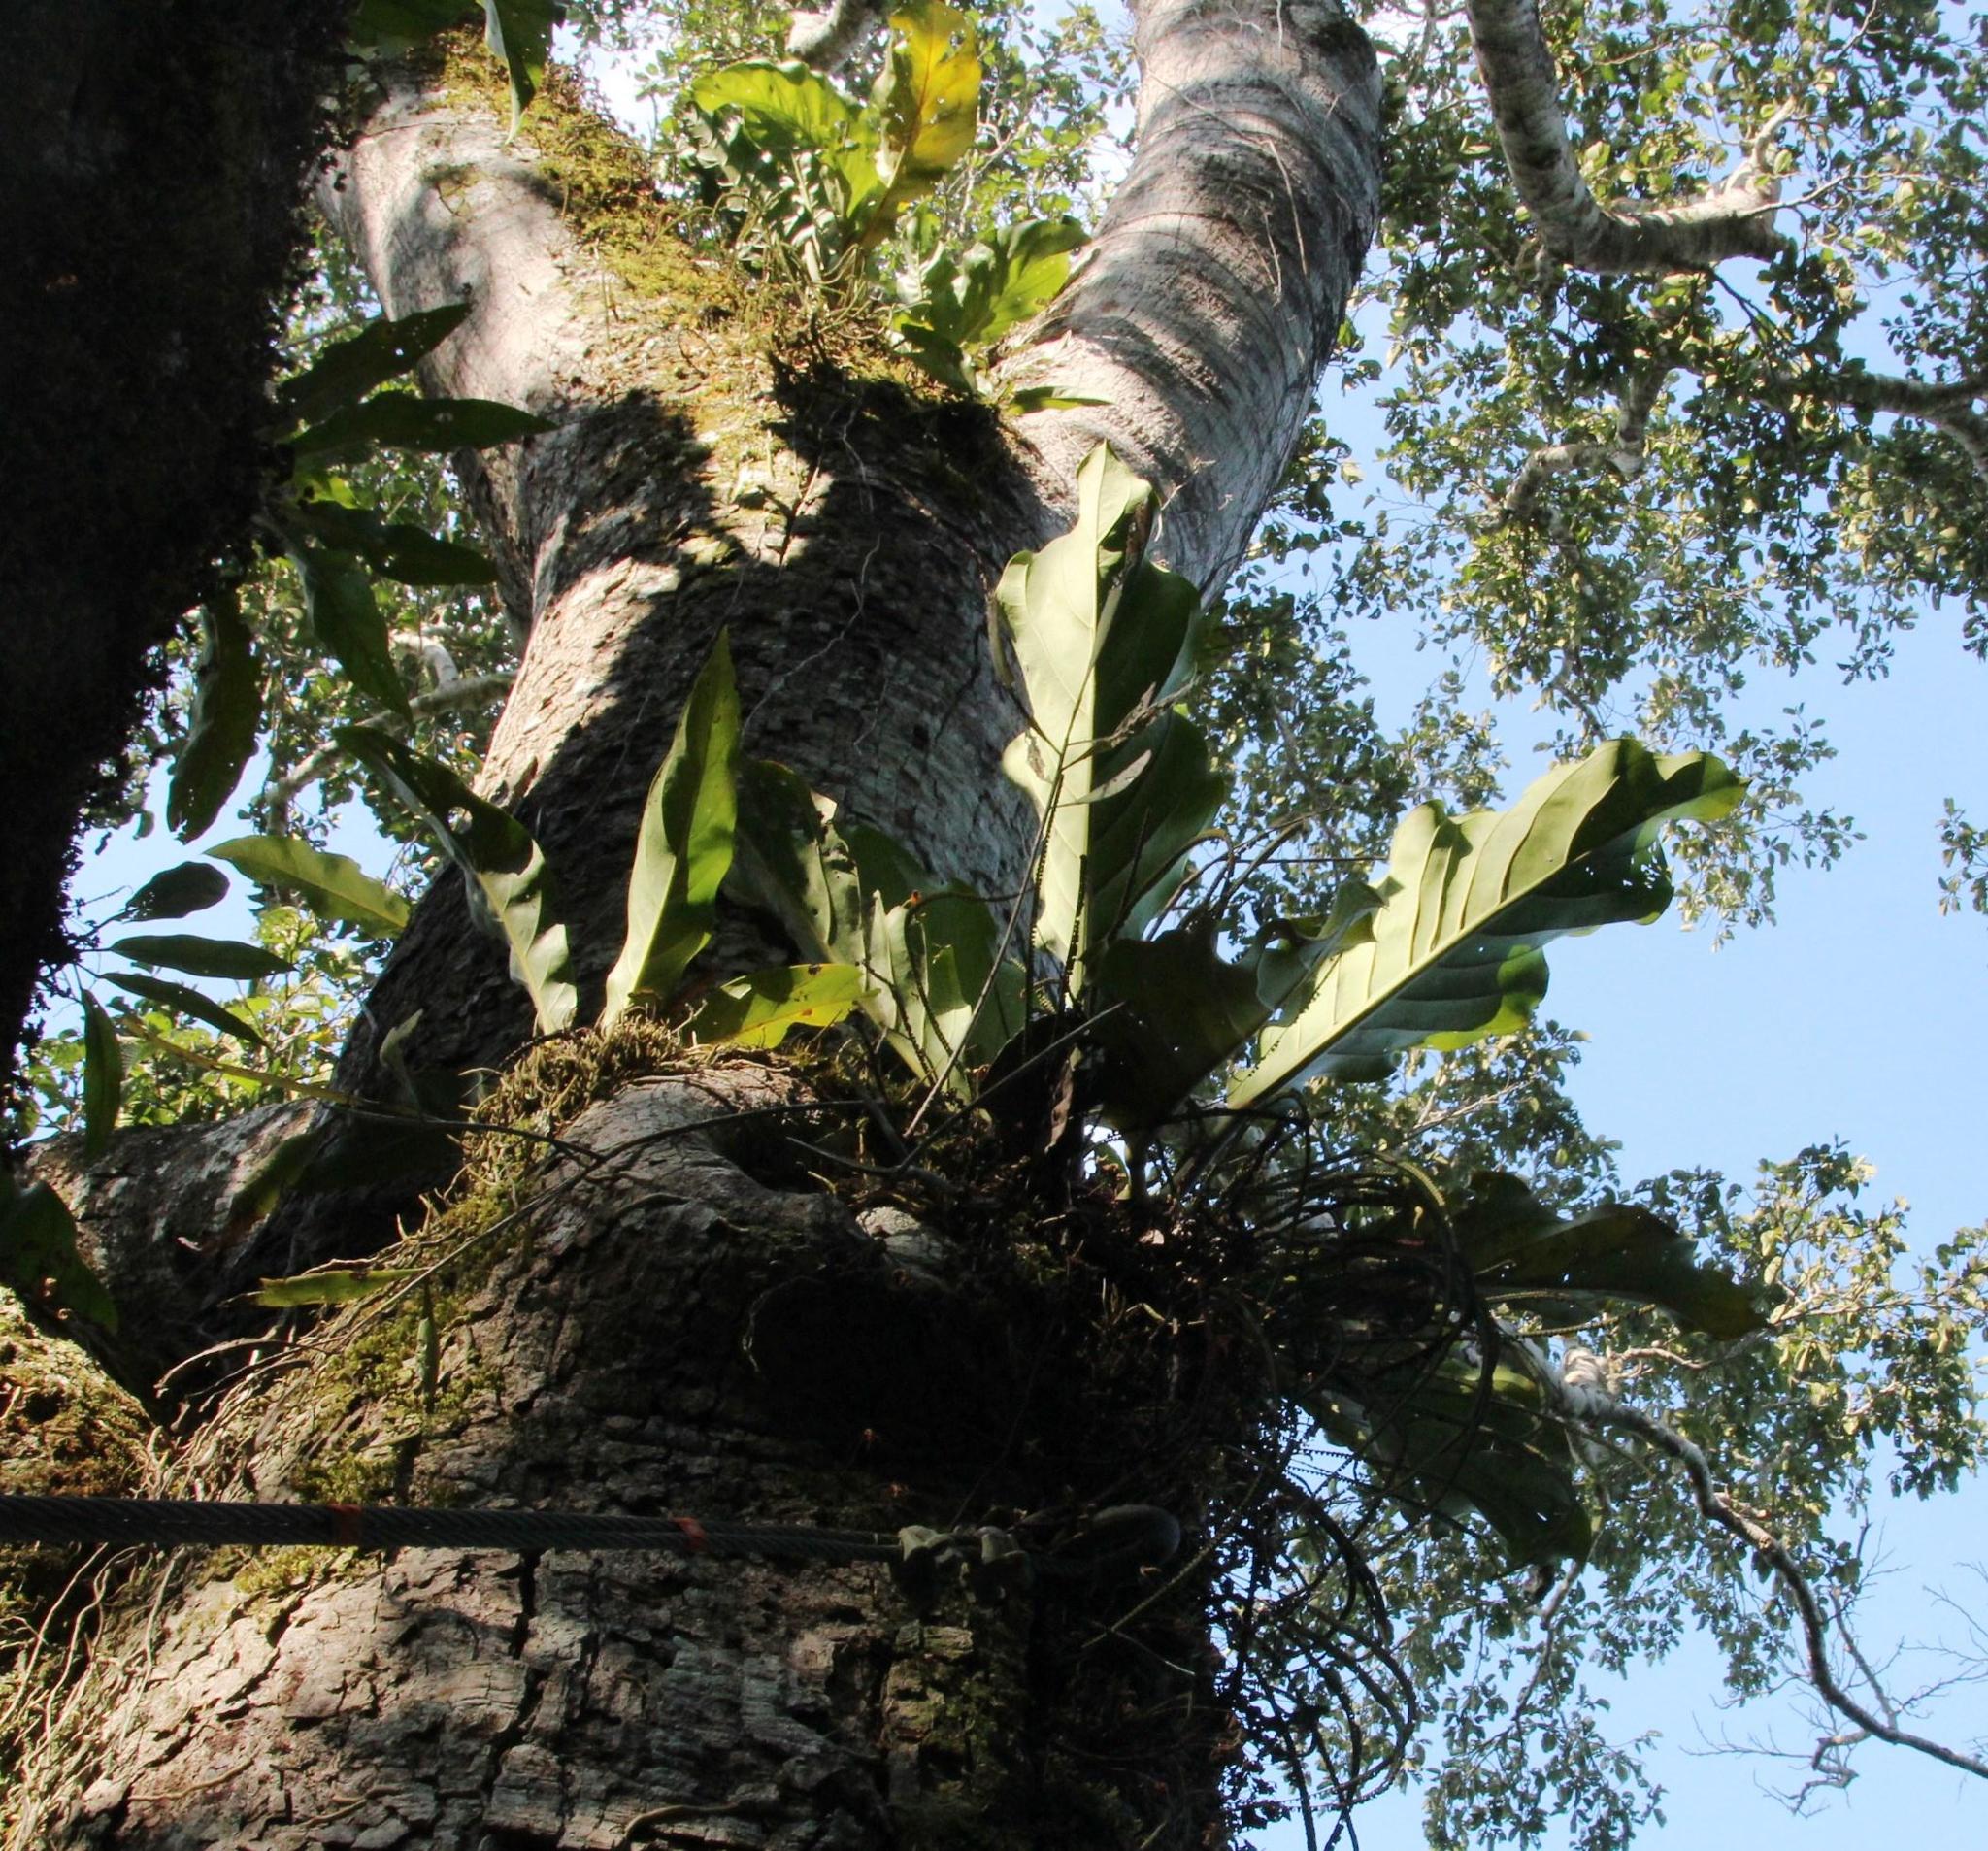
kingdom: Plantae
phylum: Tracheophyta
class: Liliopsida
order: Alismatales
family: Araceae
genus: Anthurium
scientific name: Anthurium galactospadix
